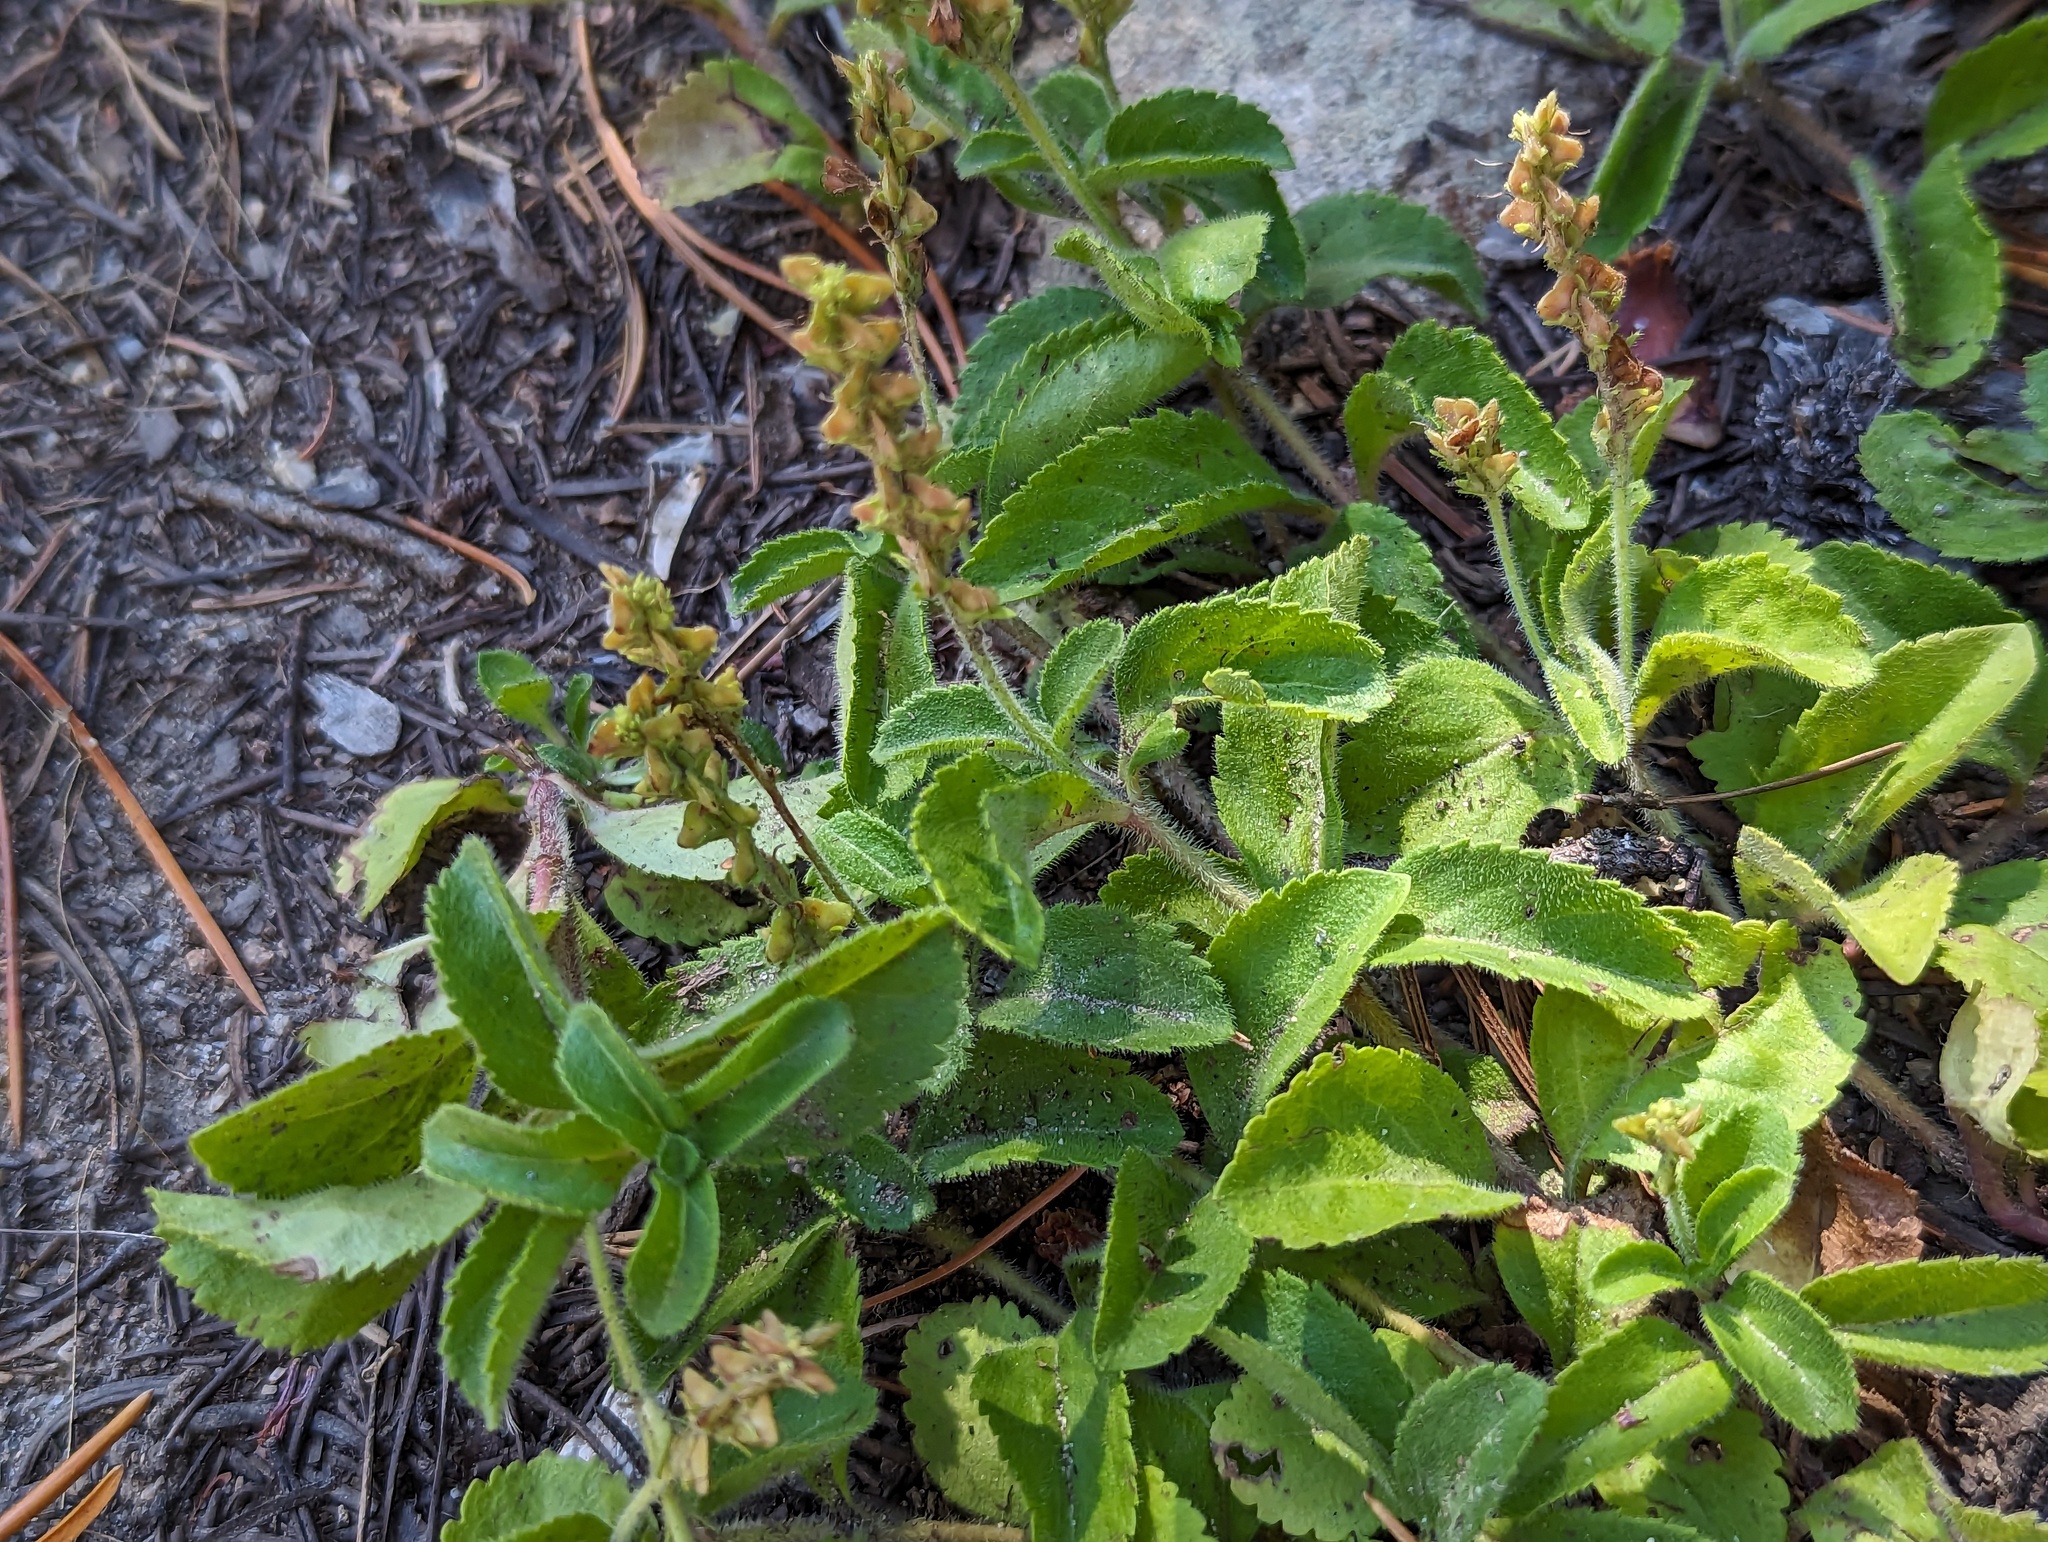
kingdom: Plantae
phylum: Tracheophyta
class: Magnoliopsida
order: Lamiales
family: Plantaginaceae
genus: Veronica
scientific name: Veronica officinalis
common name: Common speedwell
